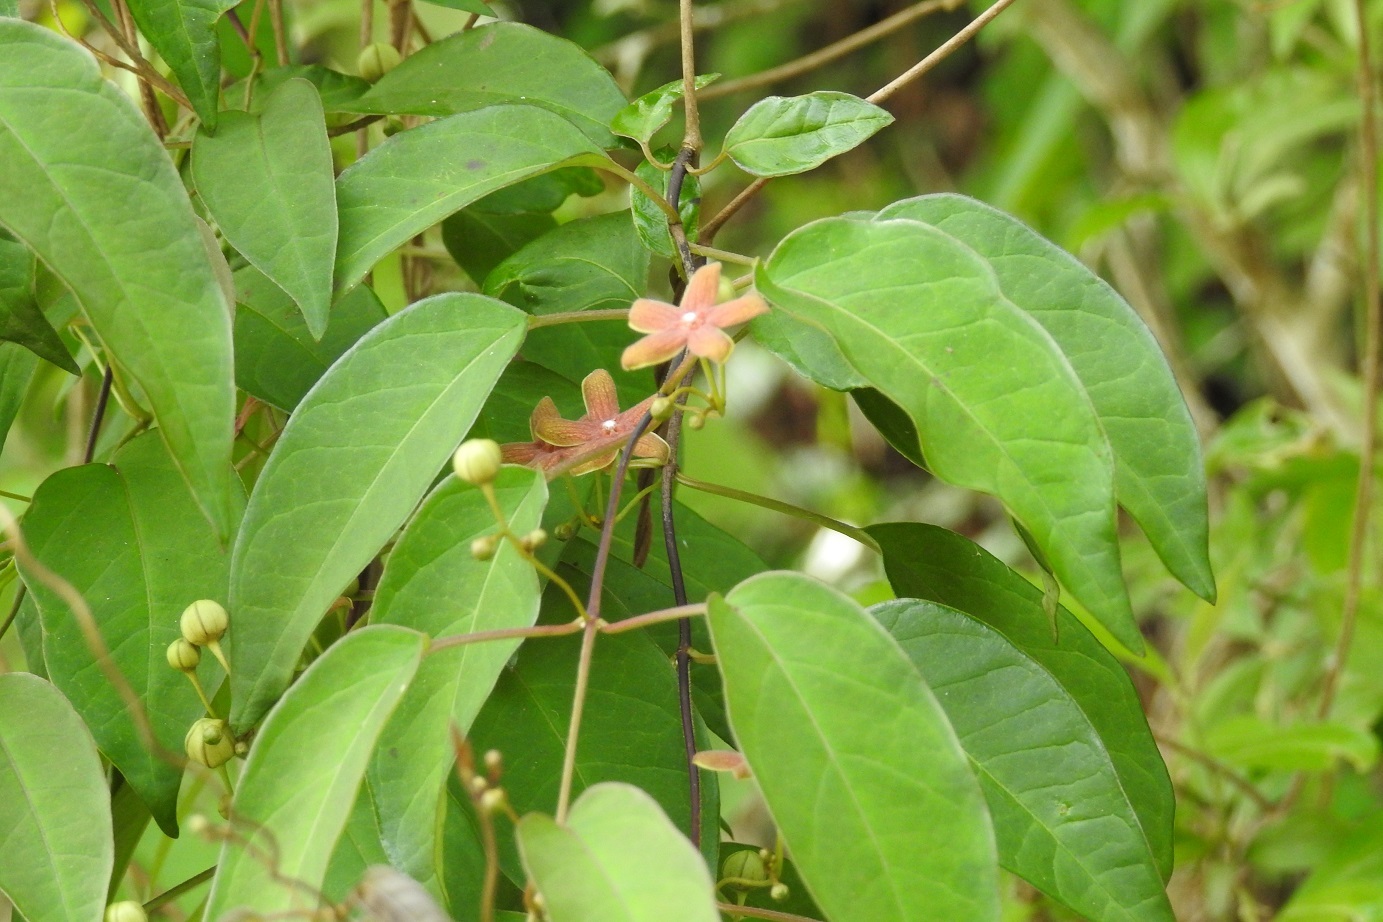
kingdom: Plantae
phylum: Tracheophyta
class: Magnoliopsida
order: Gentianales
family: Apocynaceae
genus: Ruehssia
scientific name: Ruehssia sumiderensis
